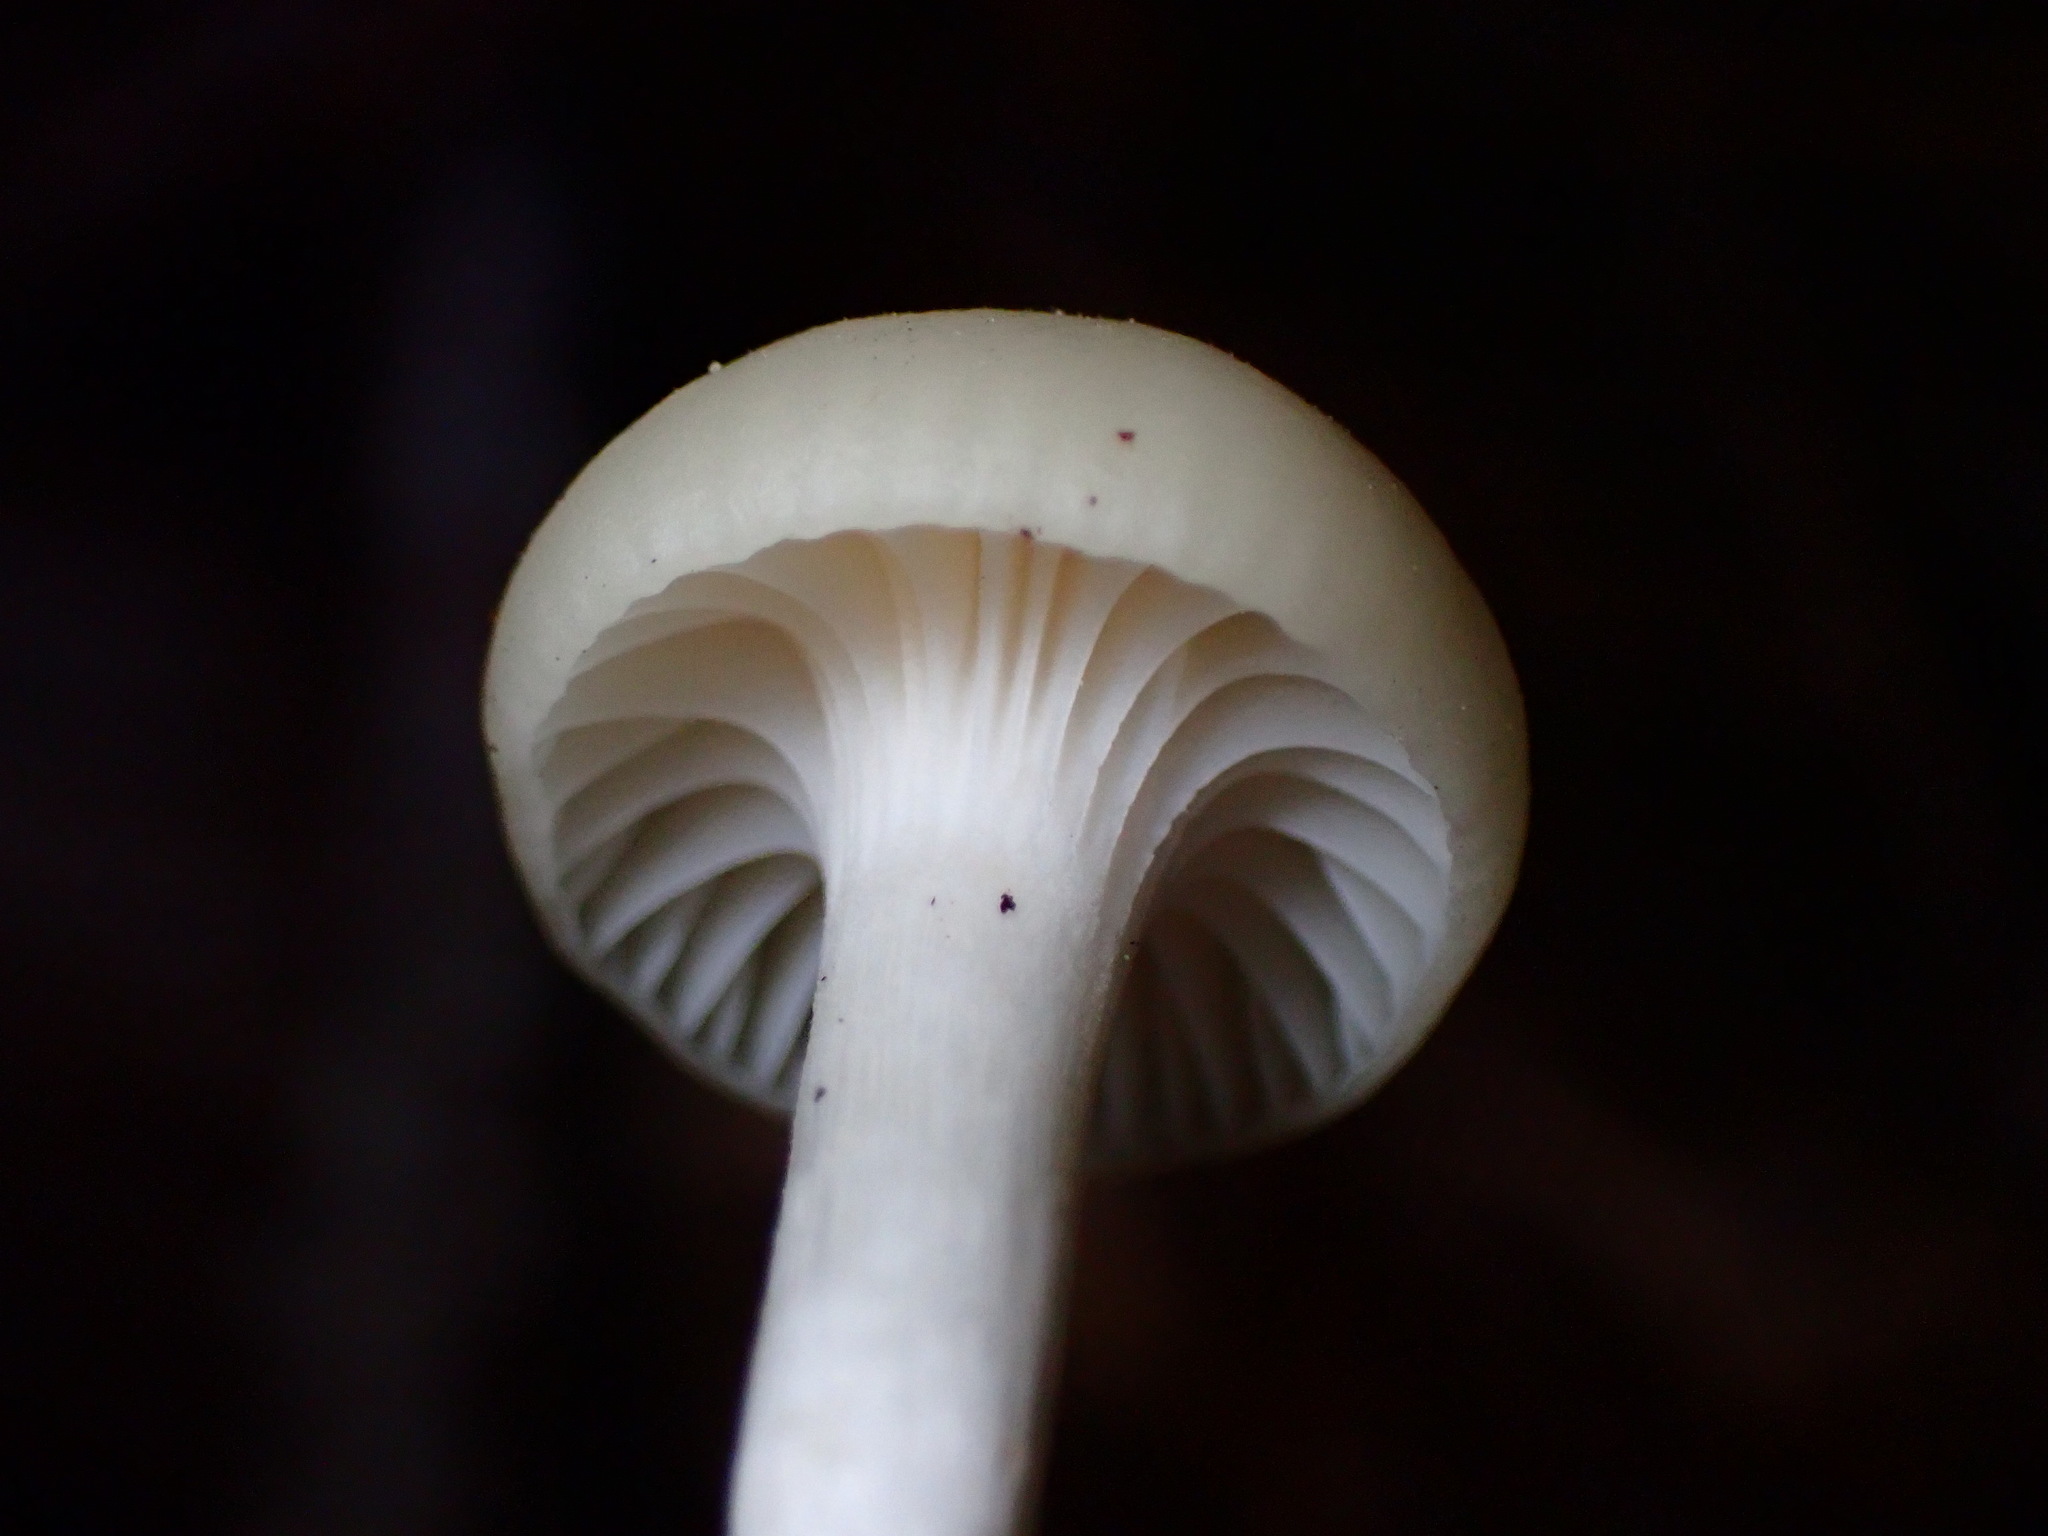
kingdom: Fungi
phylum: Basidiomycota
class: Agaricomycetes
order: Agaricales
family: Hygrophoraceae
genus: Cuphophyllus
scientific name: Cuphophyllus russocoriaceus
